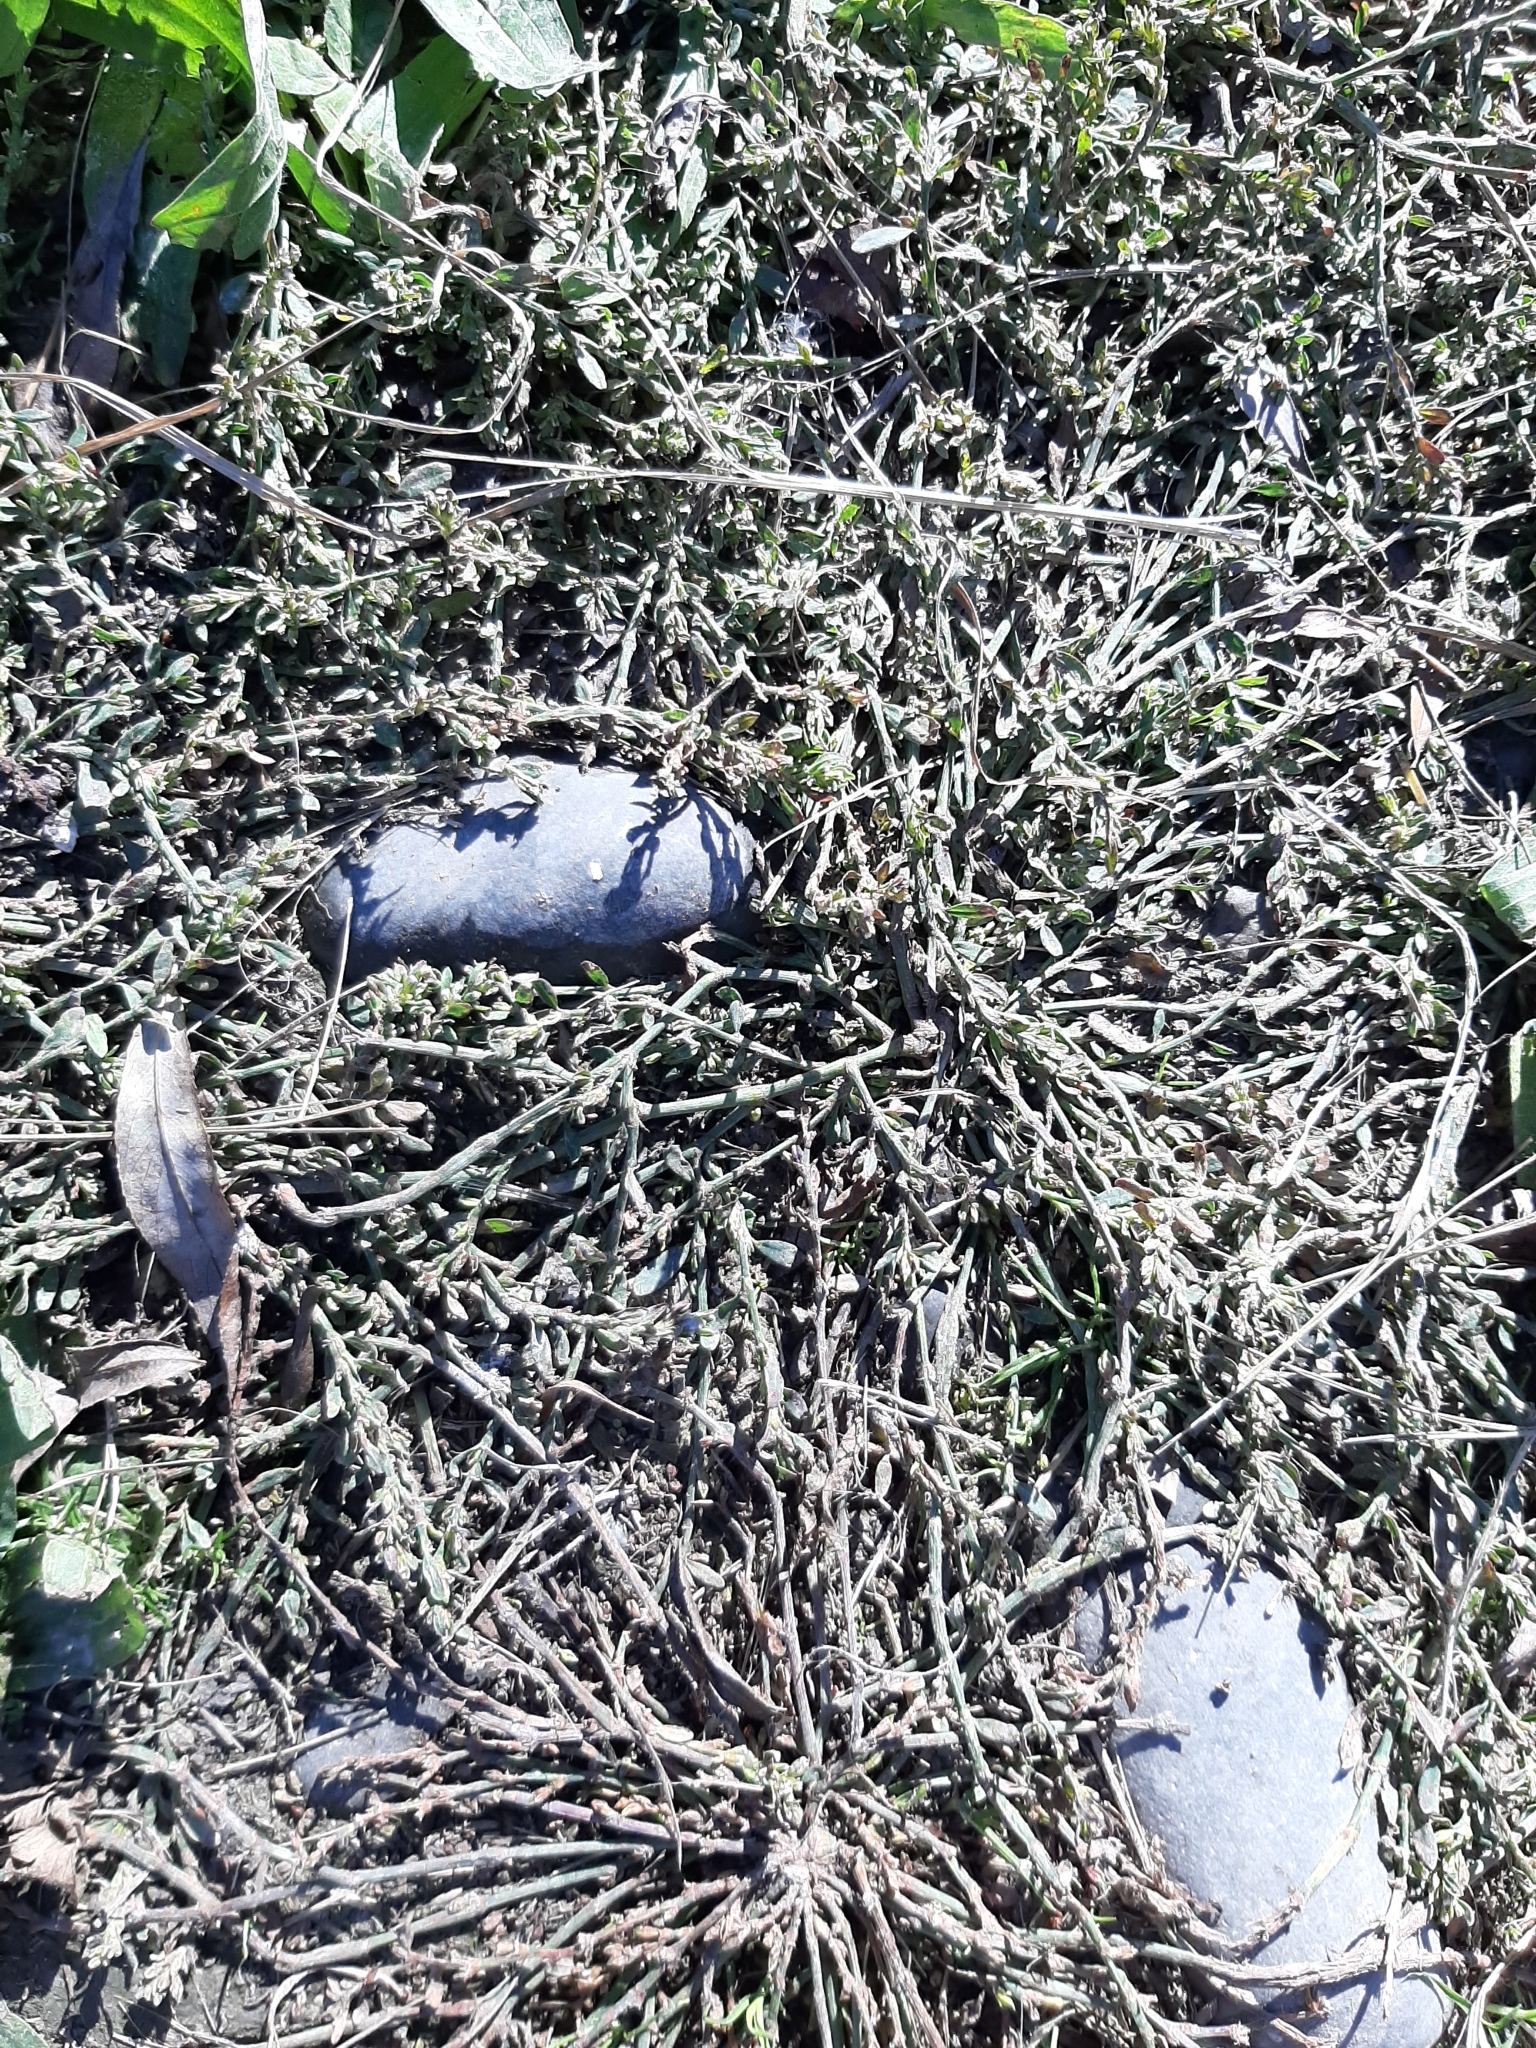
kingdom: Plantae
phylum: Tracheophyta
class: Magnoliopsida
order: Caryophyllales
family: Polygonaceae
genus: Polygonum
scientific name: Polygonum aviculare
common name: Prostrate knotweed
